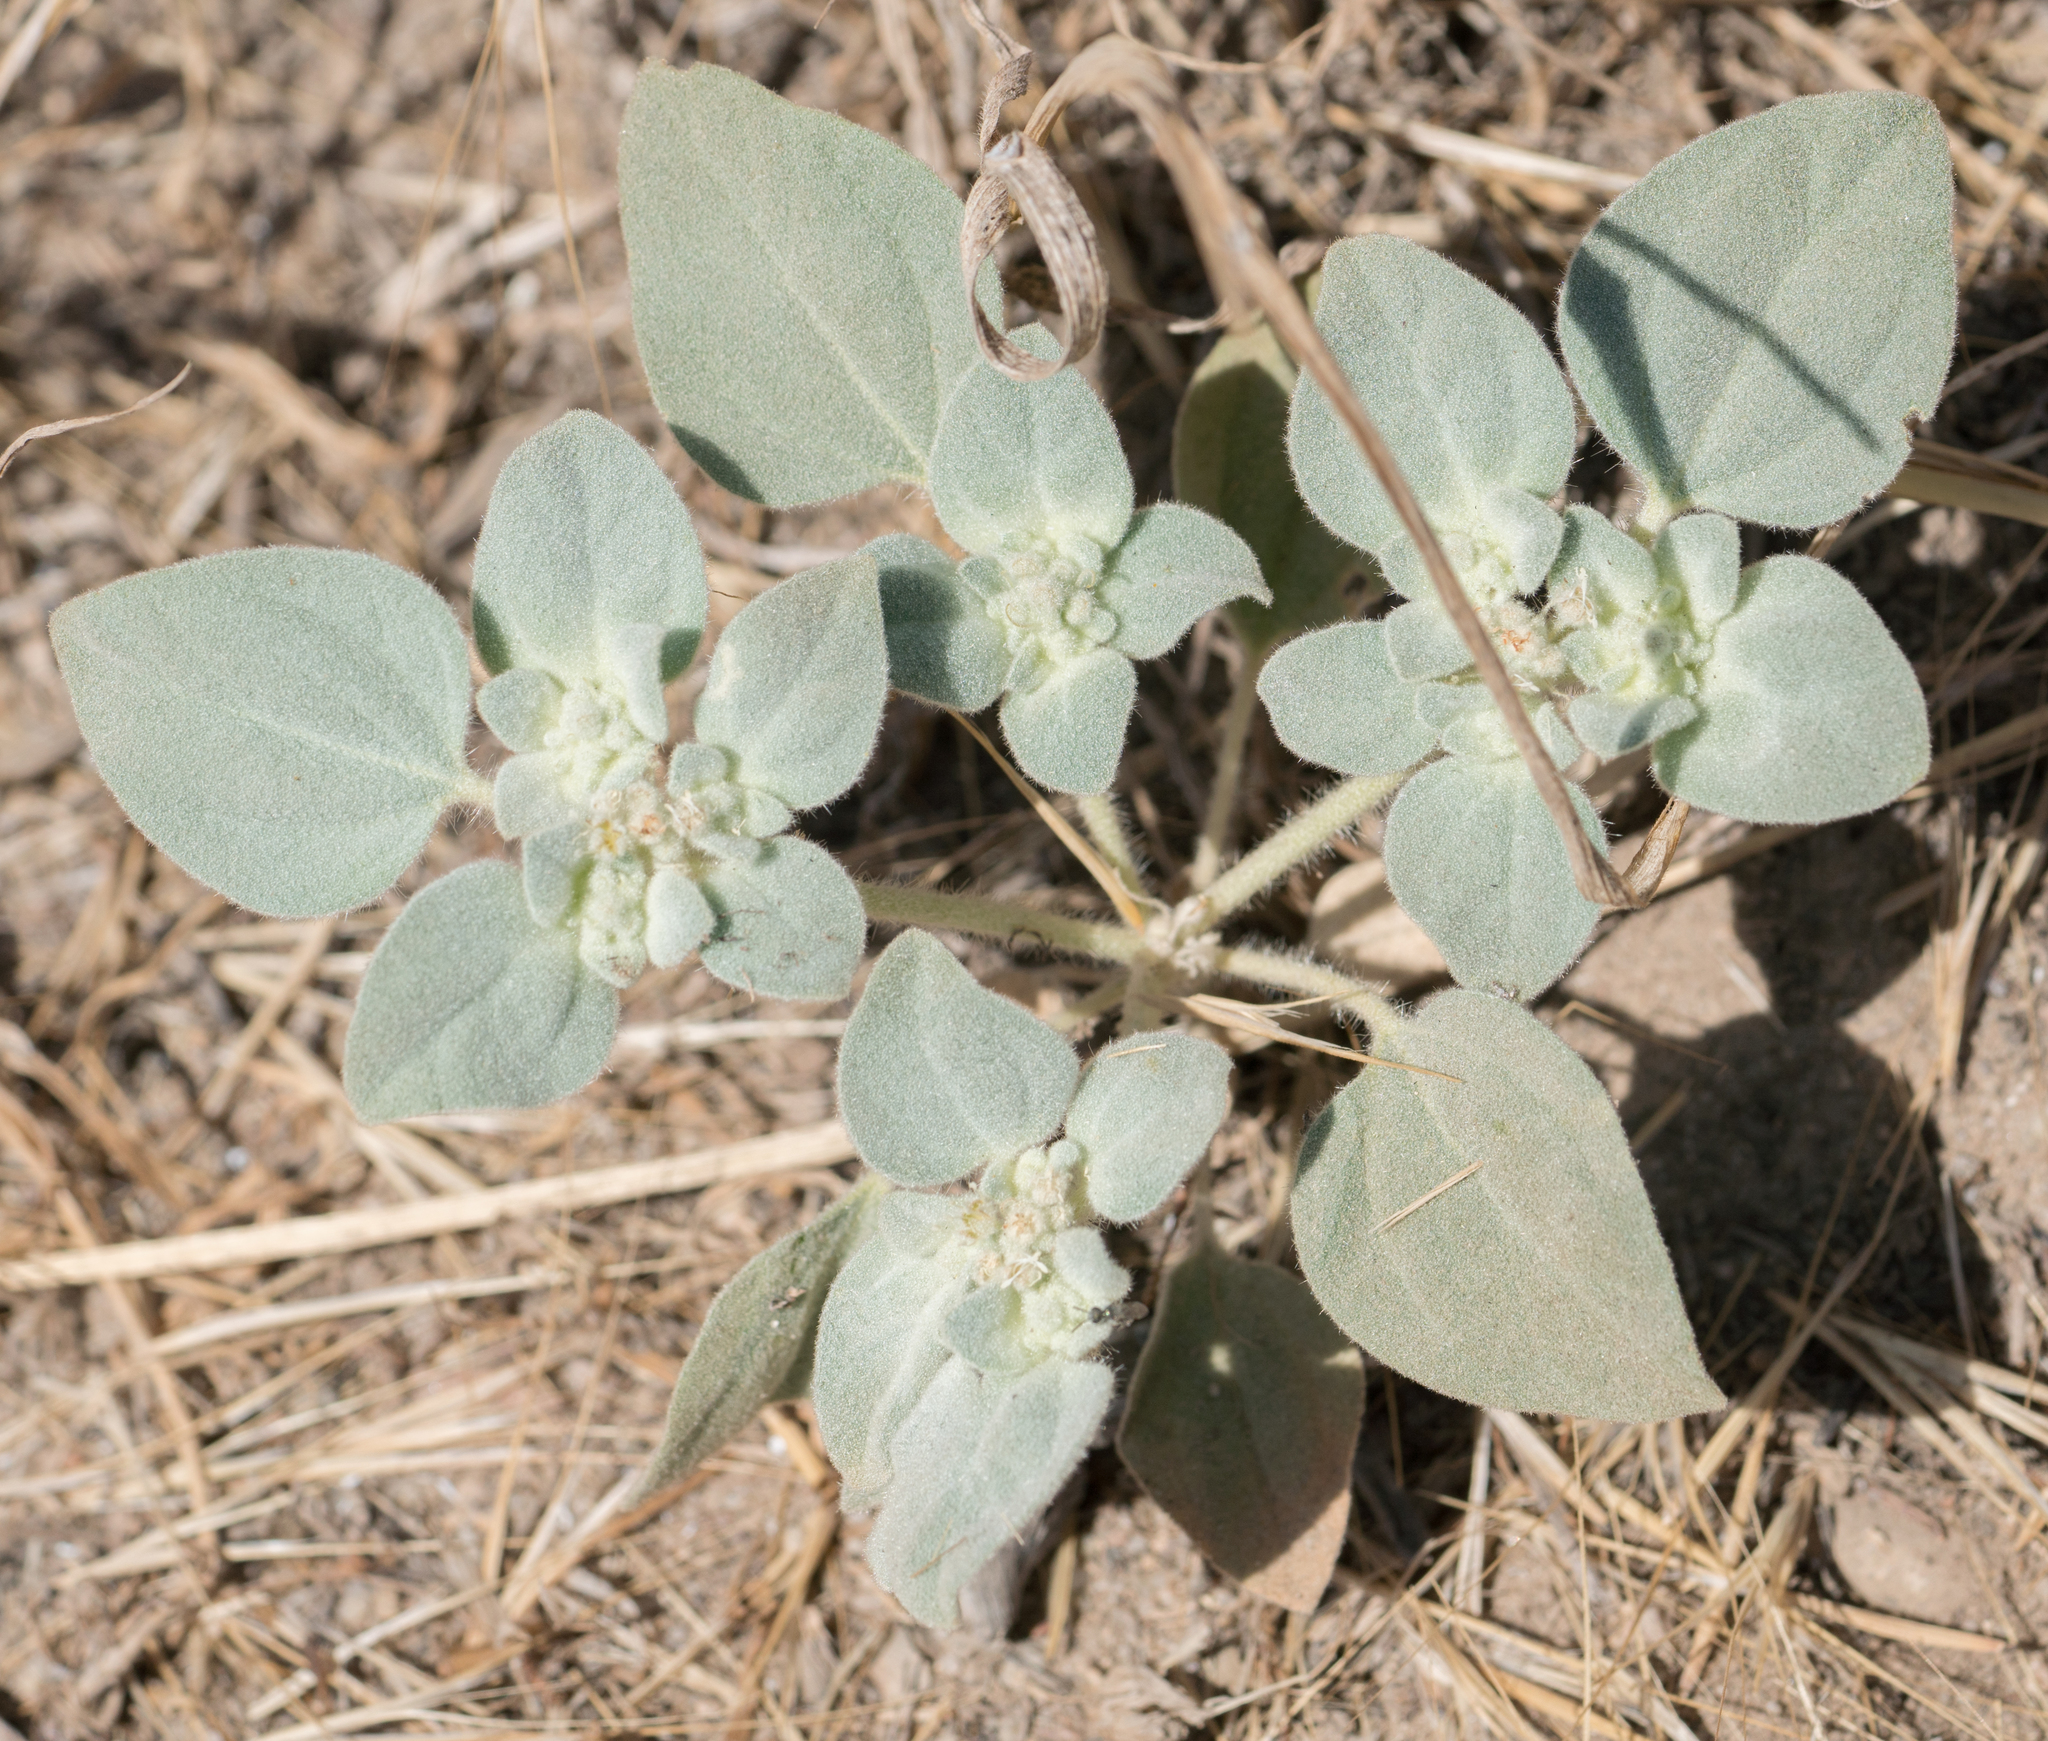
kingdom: Plantae
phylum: Tracheophyta
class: Magnoliopsida
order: Malpighiales
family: Euphorbiaceae
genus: Croton
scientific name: Croton setiger
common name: Dove weed
